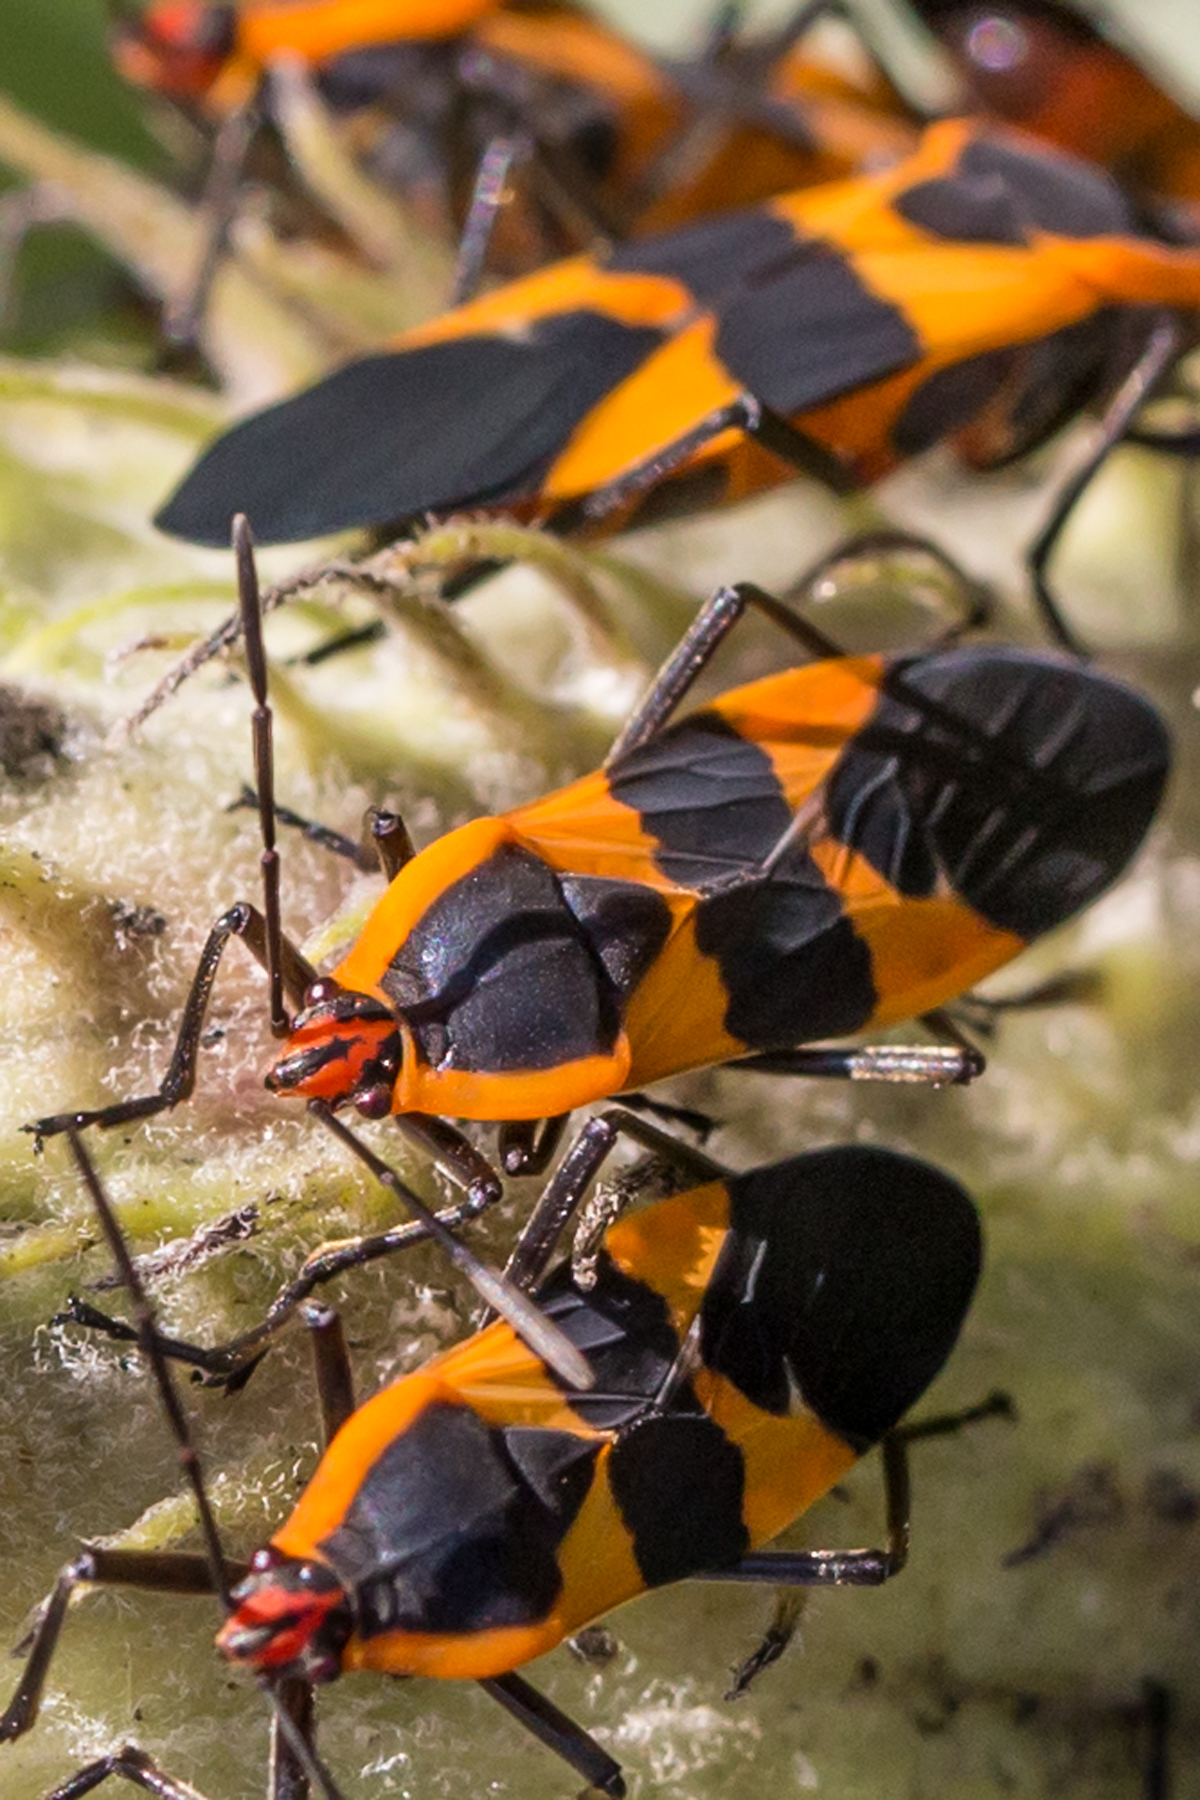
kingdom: Animalia
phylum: Arthropoda
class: Insecta
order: Hemiptera
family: Lygaeidae
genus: Oncopeltus
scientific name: Oncopeltus fasciatus
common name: Large milkweed bug
